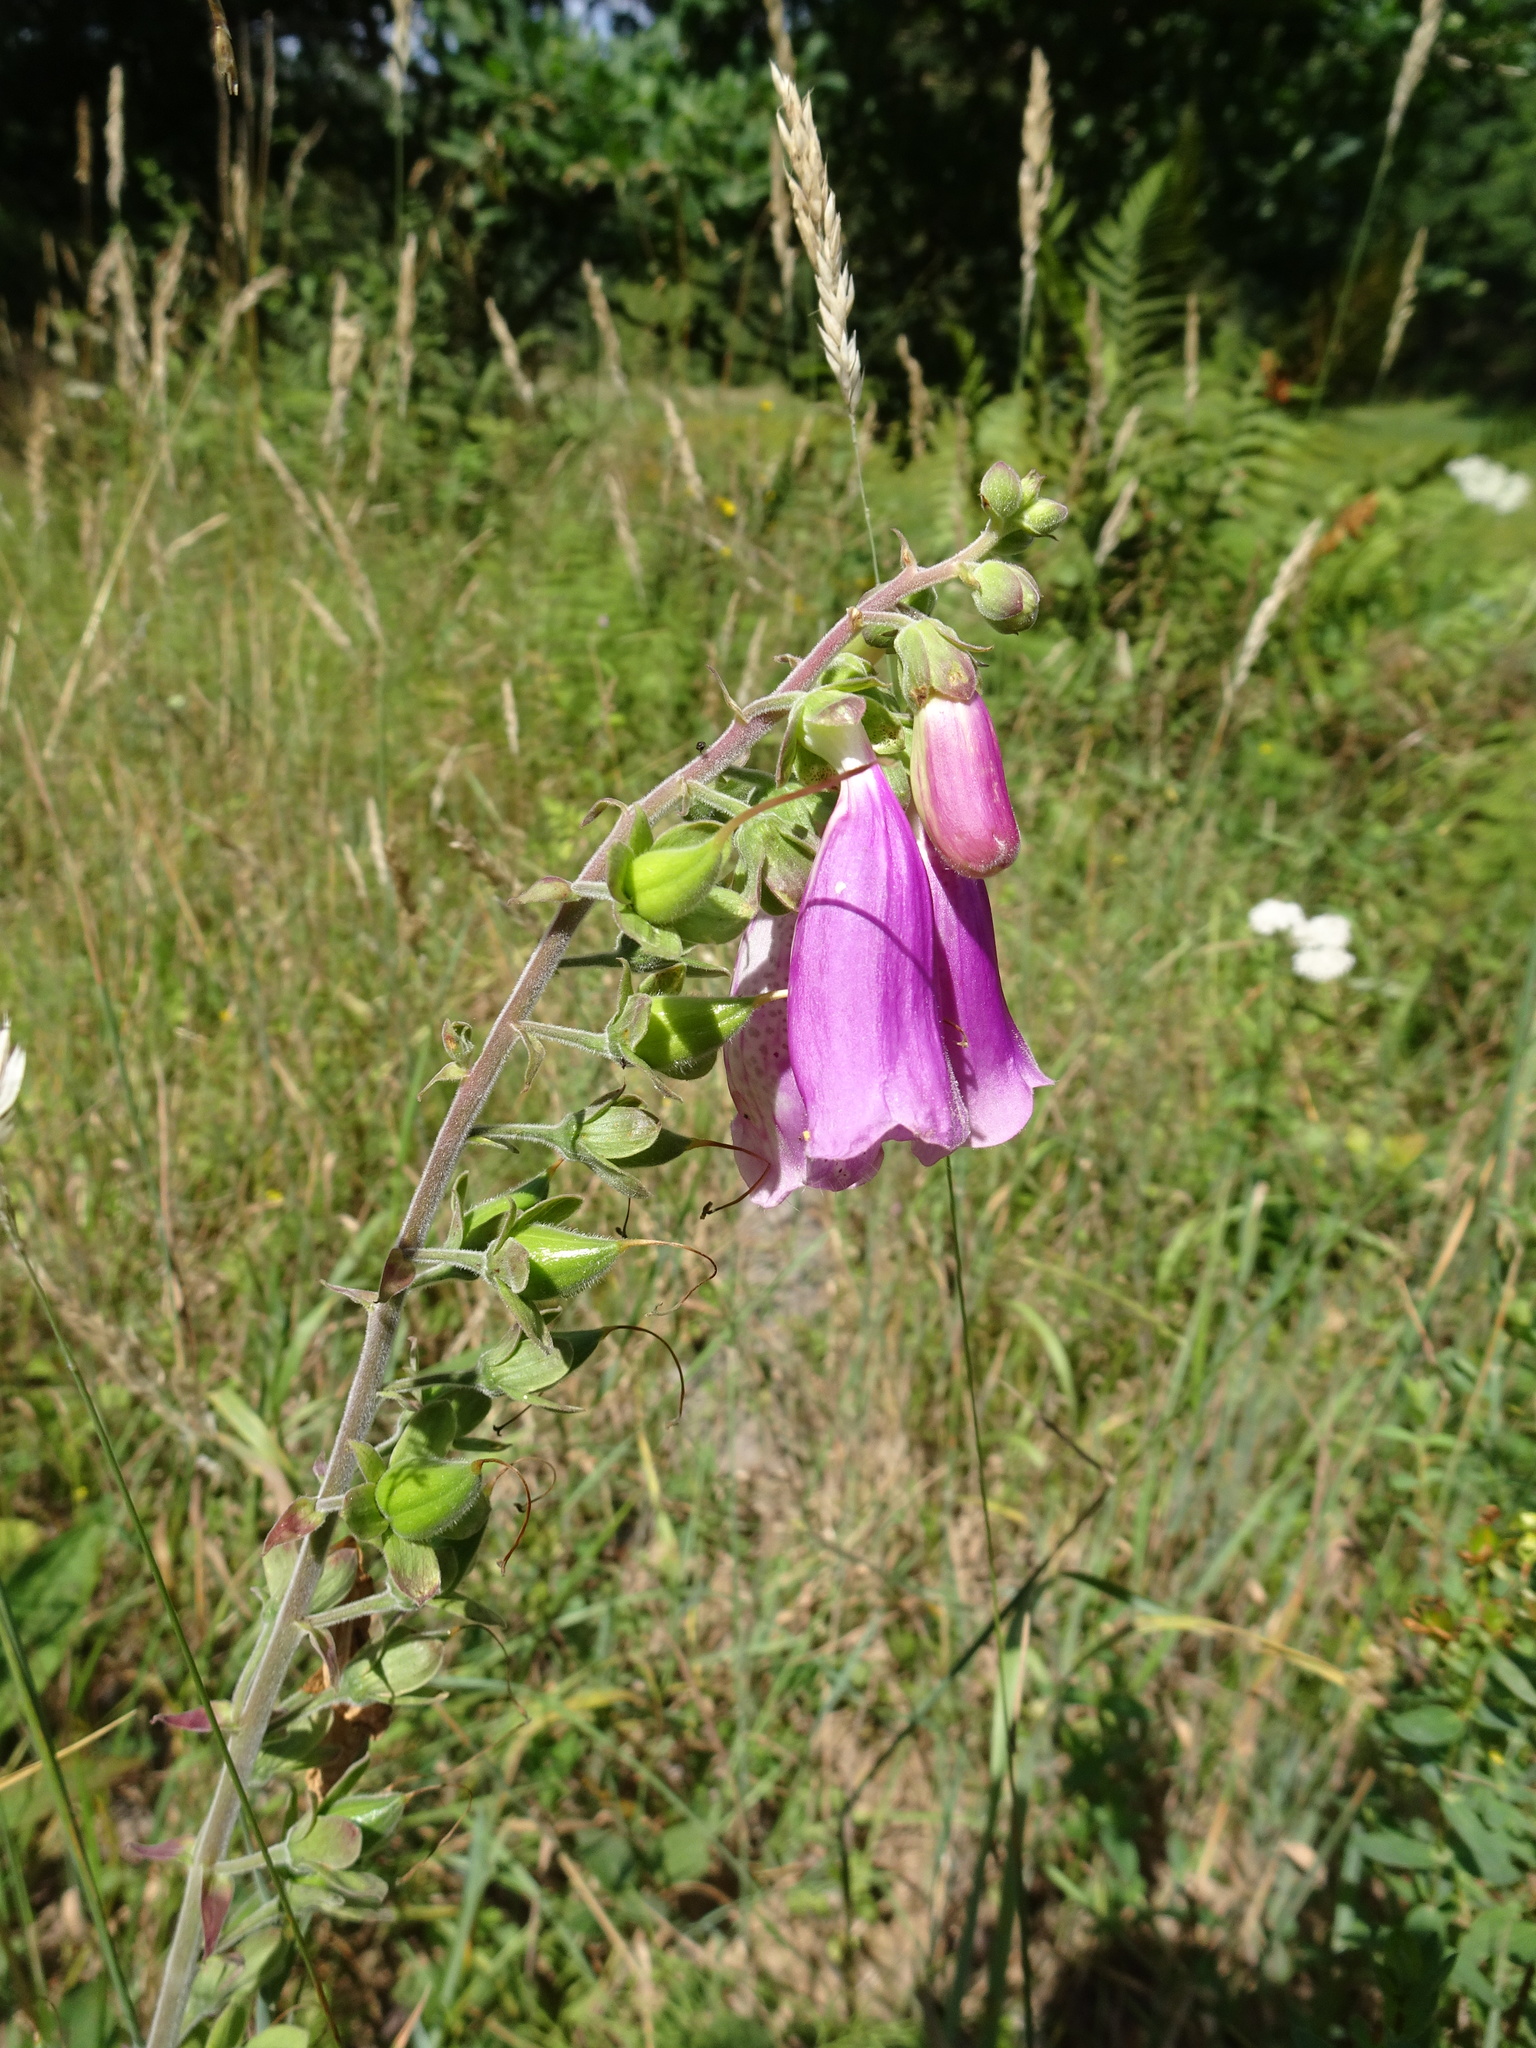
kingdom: Plantae
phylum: Tracheophyta
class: Magnoliopsida
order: Lamiales
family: Plantaginaceae
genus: Digitalis
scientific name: Digitalis purpurea
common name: Foxglove
